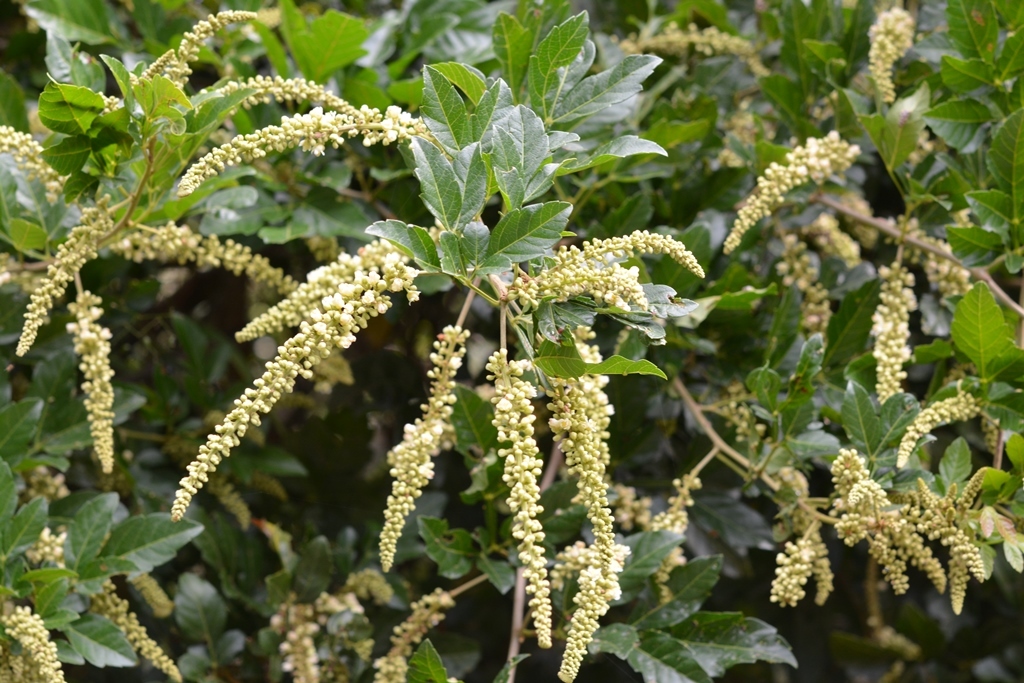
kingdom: Plantae
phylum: Tracheophyta
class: Magnoliopsida
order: Sapindales
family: Sapindaceae
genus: Paullinia
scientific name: Paullinia fuscescens
